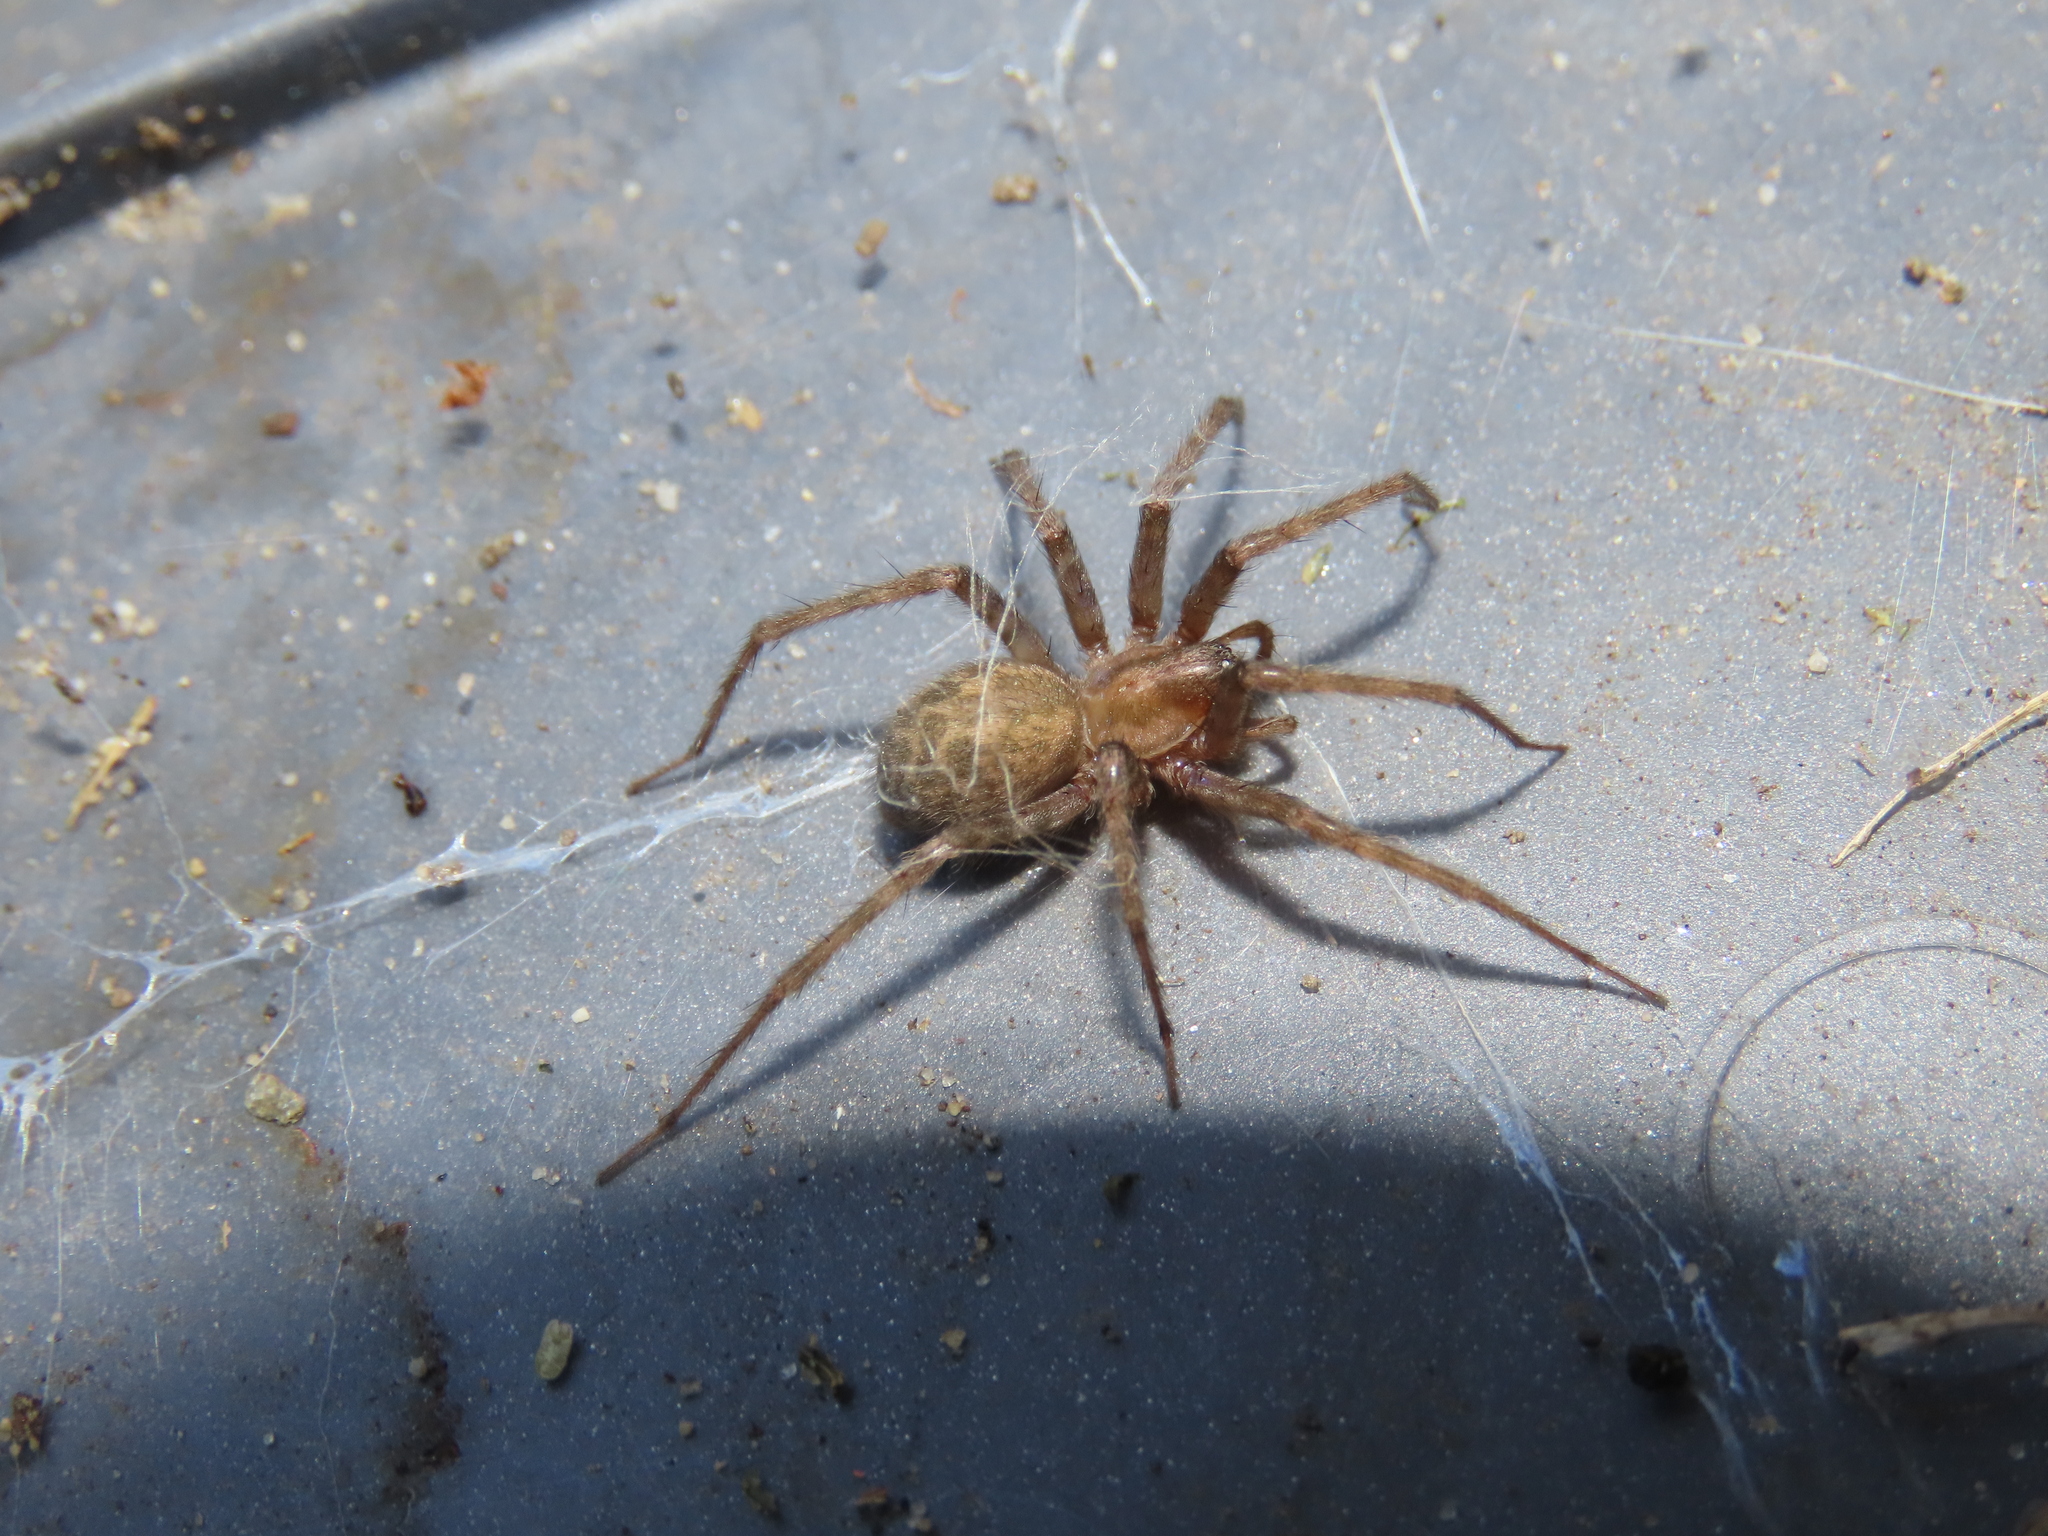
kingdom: Animalia
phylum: Arthropoda
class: Arachnida
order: Araneae
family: Agelenidae
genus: Tegenaria
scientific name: Tegenaria domestica
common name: Barn funnel weaver
